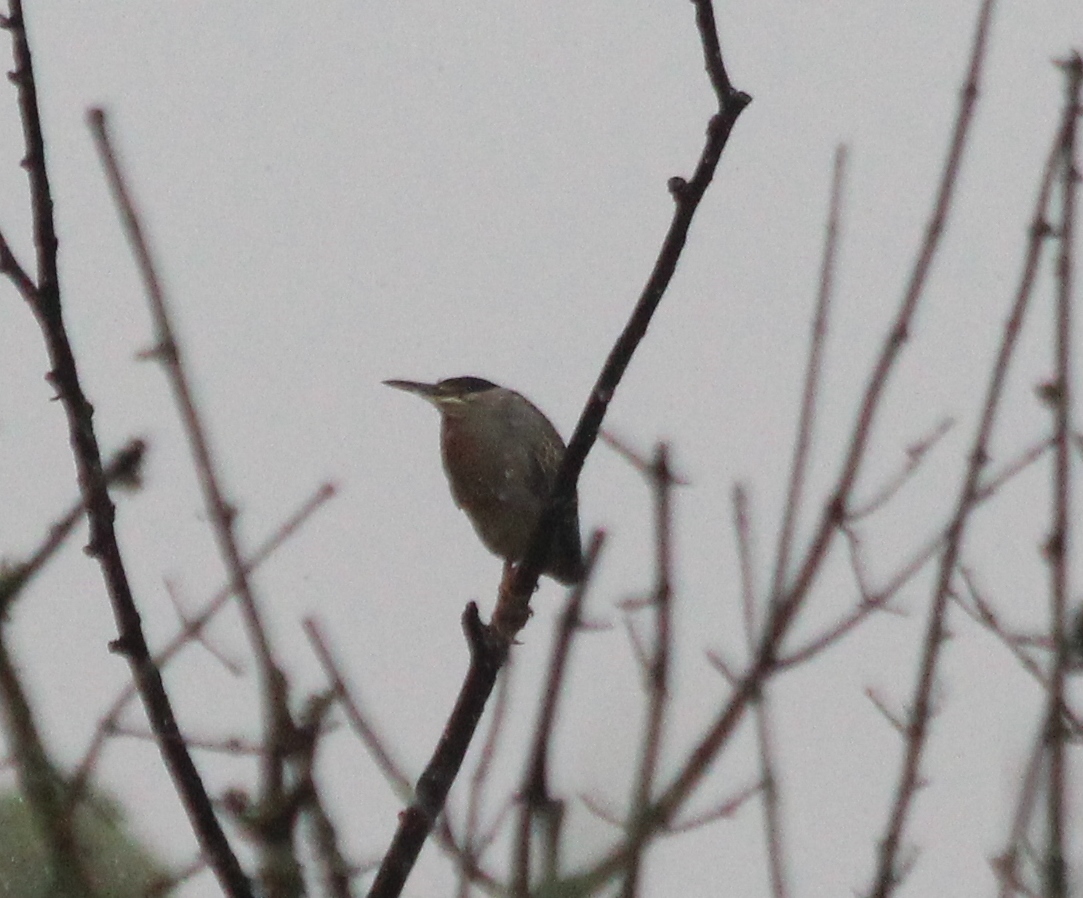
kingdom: Animalia
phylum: Chordata
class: Aves
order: Pelecaniformes
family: Ardeidae
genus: Butorides
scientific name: Butorides striata
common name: Striated heron
